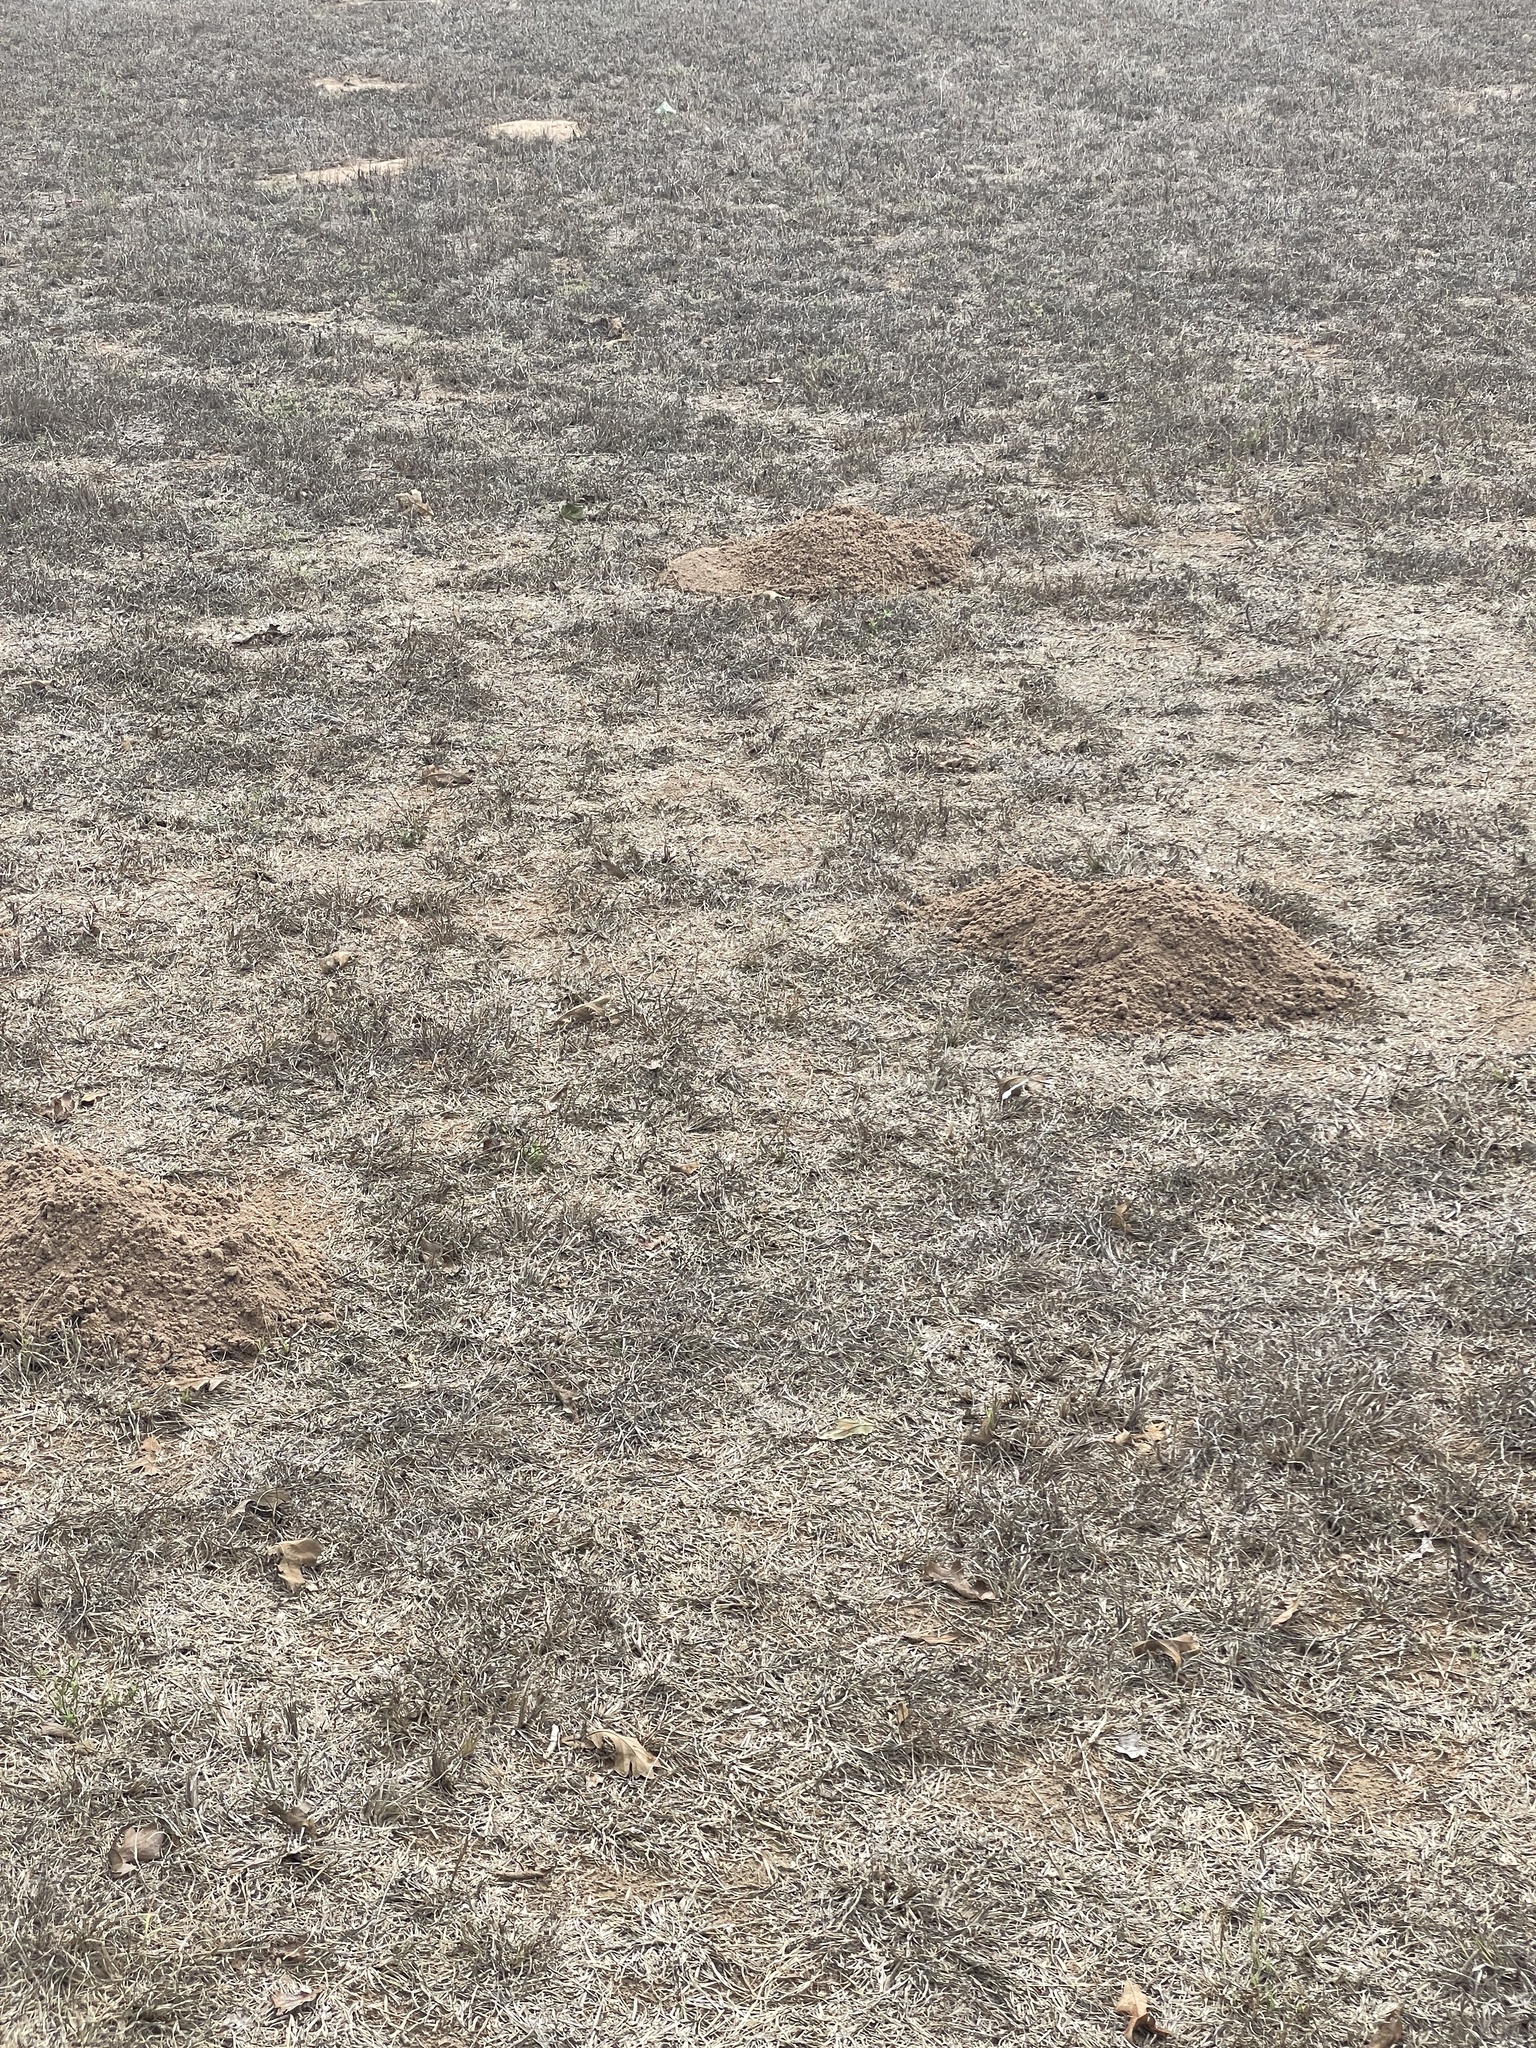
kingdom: Animalia
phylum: Chordata
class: Mammalia
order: Rodentia
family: Geomyidae
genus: Geomys
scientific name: Geomys attwateri
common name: Attwater's pocket gopher
